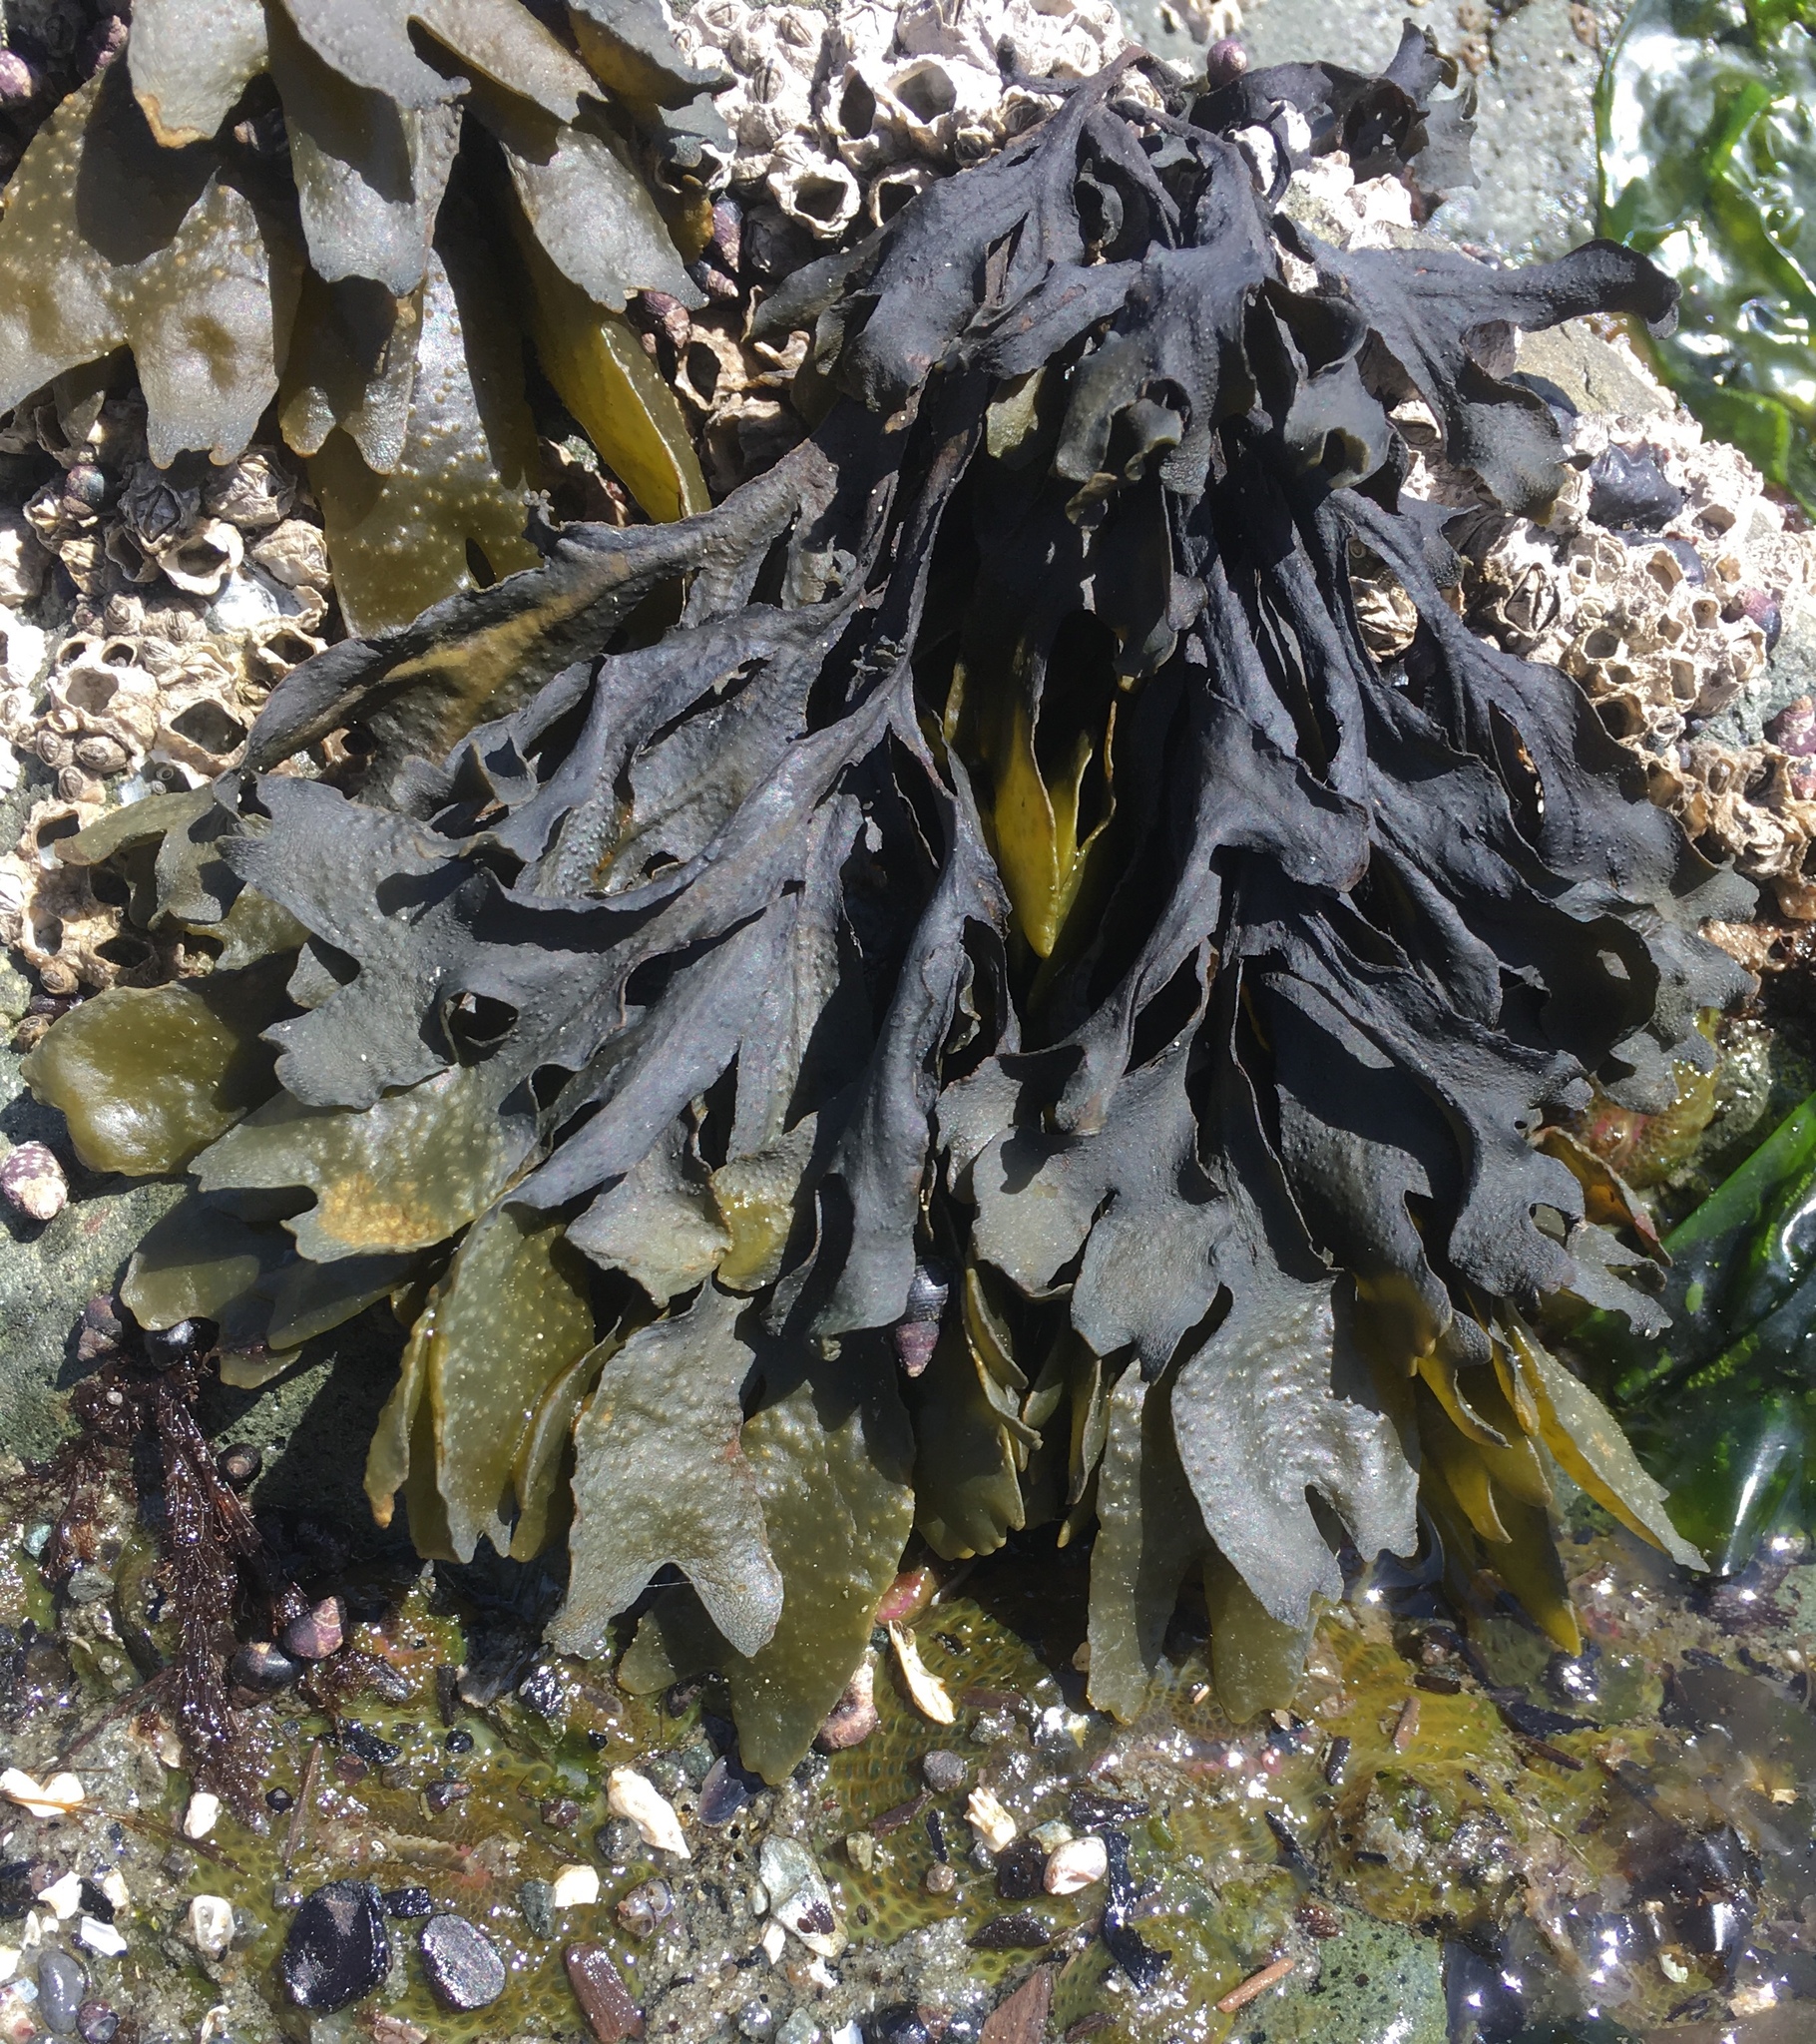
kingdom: Chromista
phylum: Ochrophyta
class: Phaeophyceae
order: Fucales
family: Fucaceae
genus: Fucus
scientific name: Fucus distichus
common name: Rockweed
